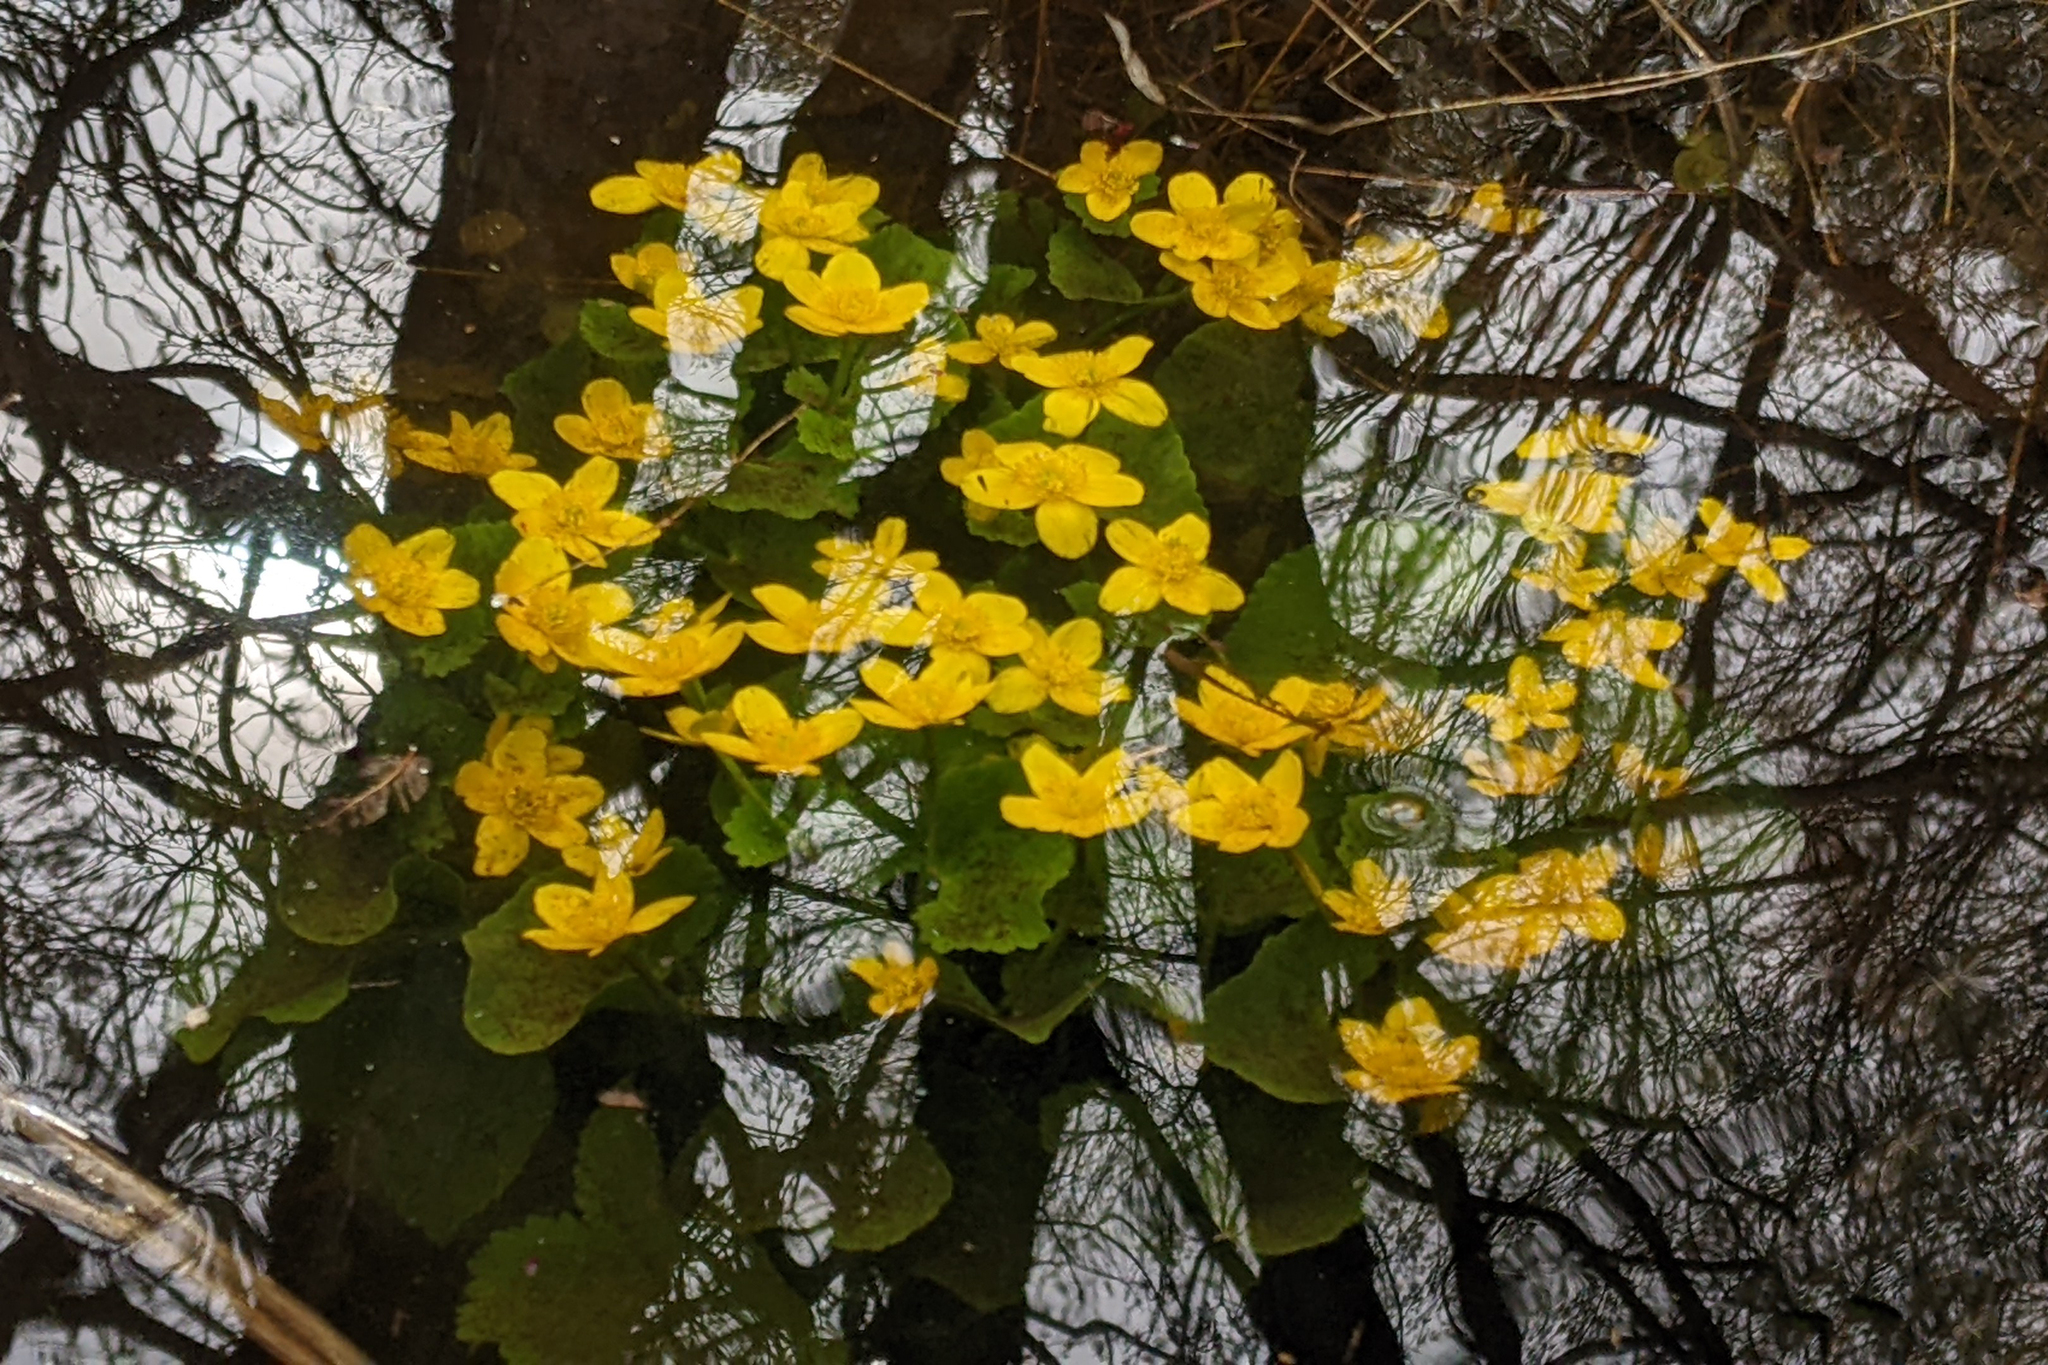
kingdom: Plantae
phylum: Tracheophyta
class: Magnoliopsida
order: Ranunculales
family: Ranunculaceae
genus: Caltha
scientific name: Caltha palustris
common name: Marsh marigold
